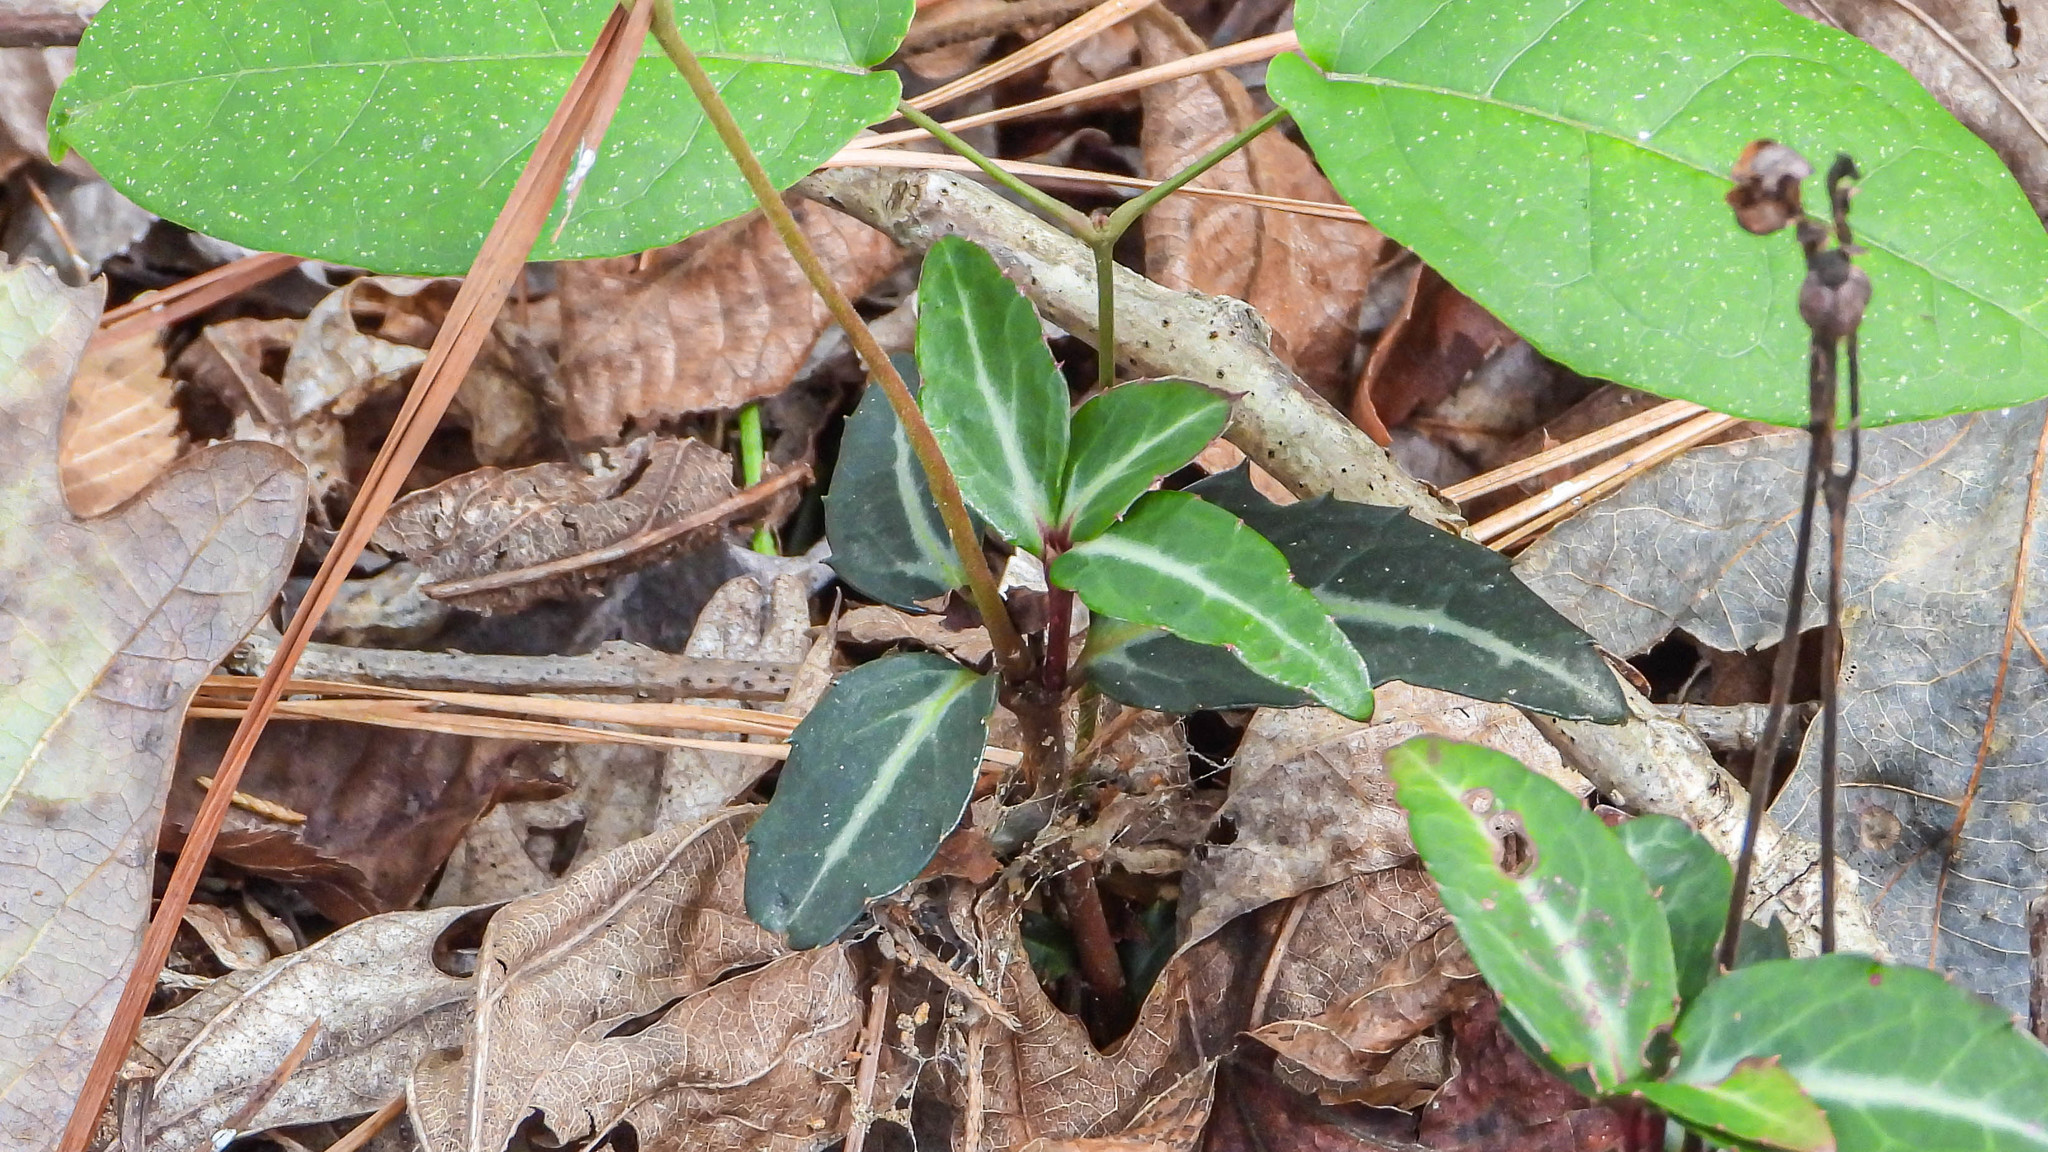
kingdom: Plantae
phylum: Tracheophyta
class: Magnoliopsida
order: Ericales
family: Ericaceae
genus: Chimaphila
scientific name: Chimaphila maculata
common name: Spotted pipsissewa
